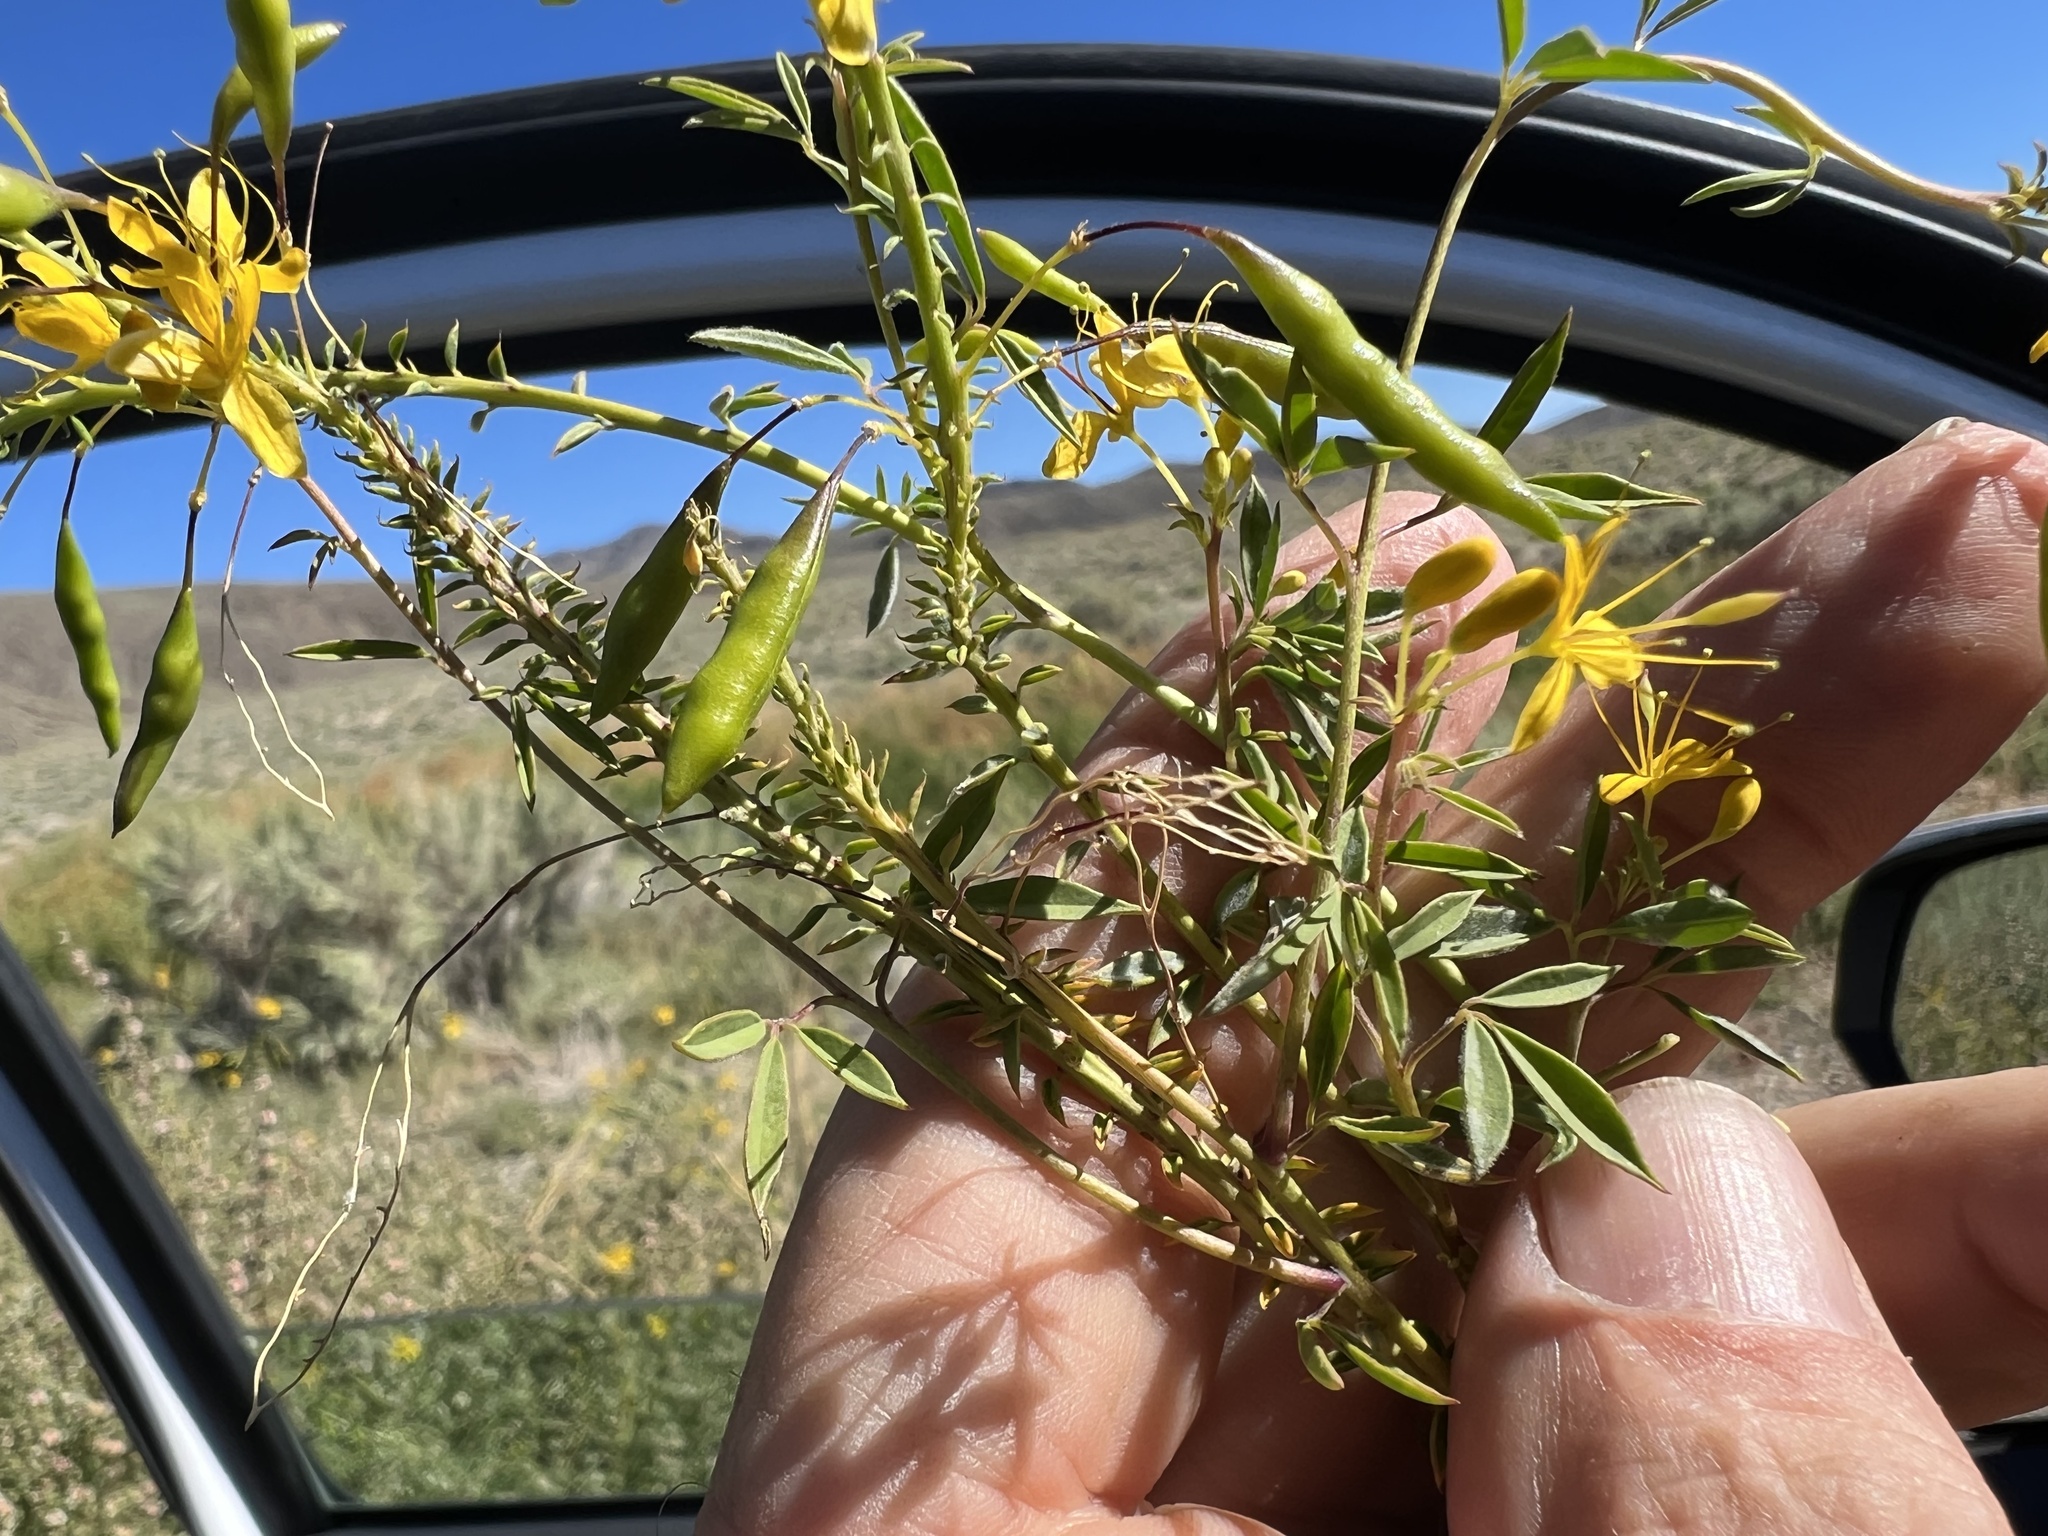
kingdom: Plantae
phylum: Tracheophyta
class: Magnoliopsida
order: Brassicales
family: Cleomaceae
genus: Cleomella
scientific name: Cleomella lutea
